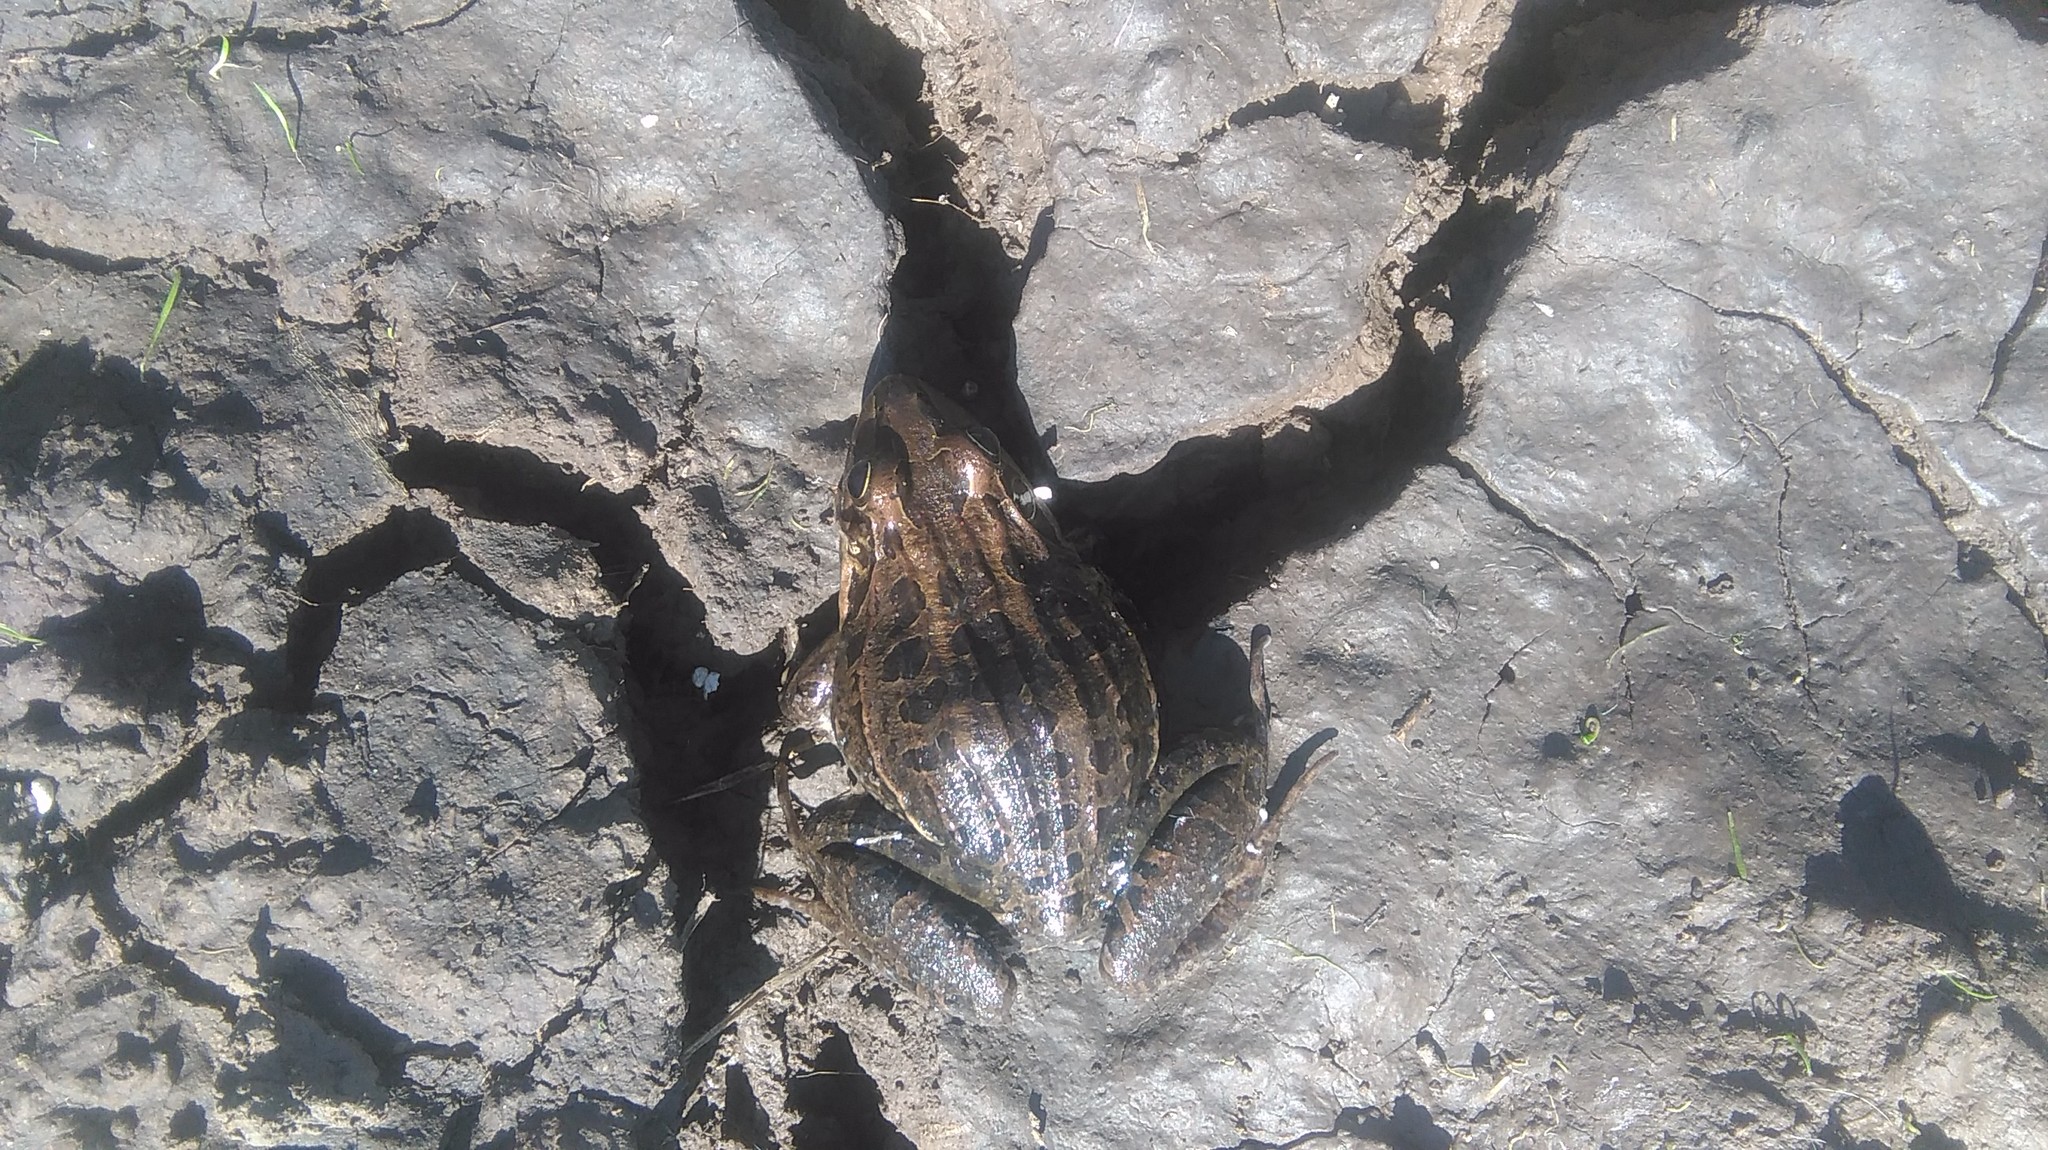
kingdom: Animalia
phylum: Chordata
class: Amphibia
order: Anura
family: Leptodactylidae
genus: Leptodactylus
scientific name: Leptodactylus luctator
